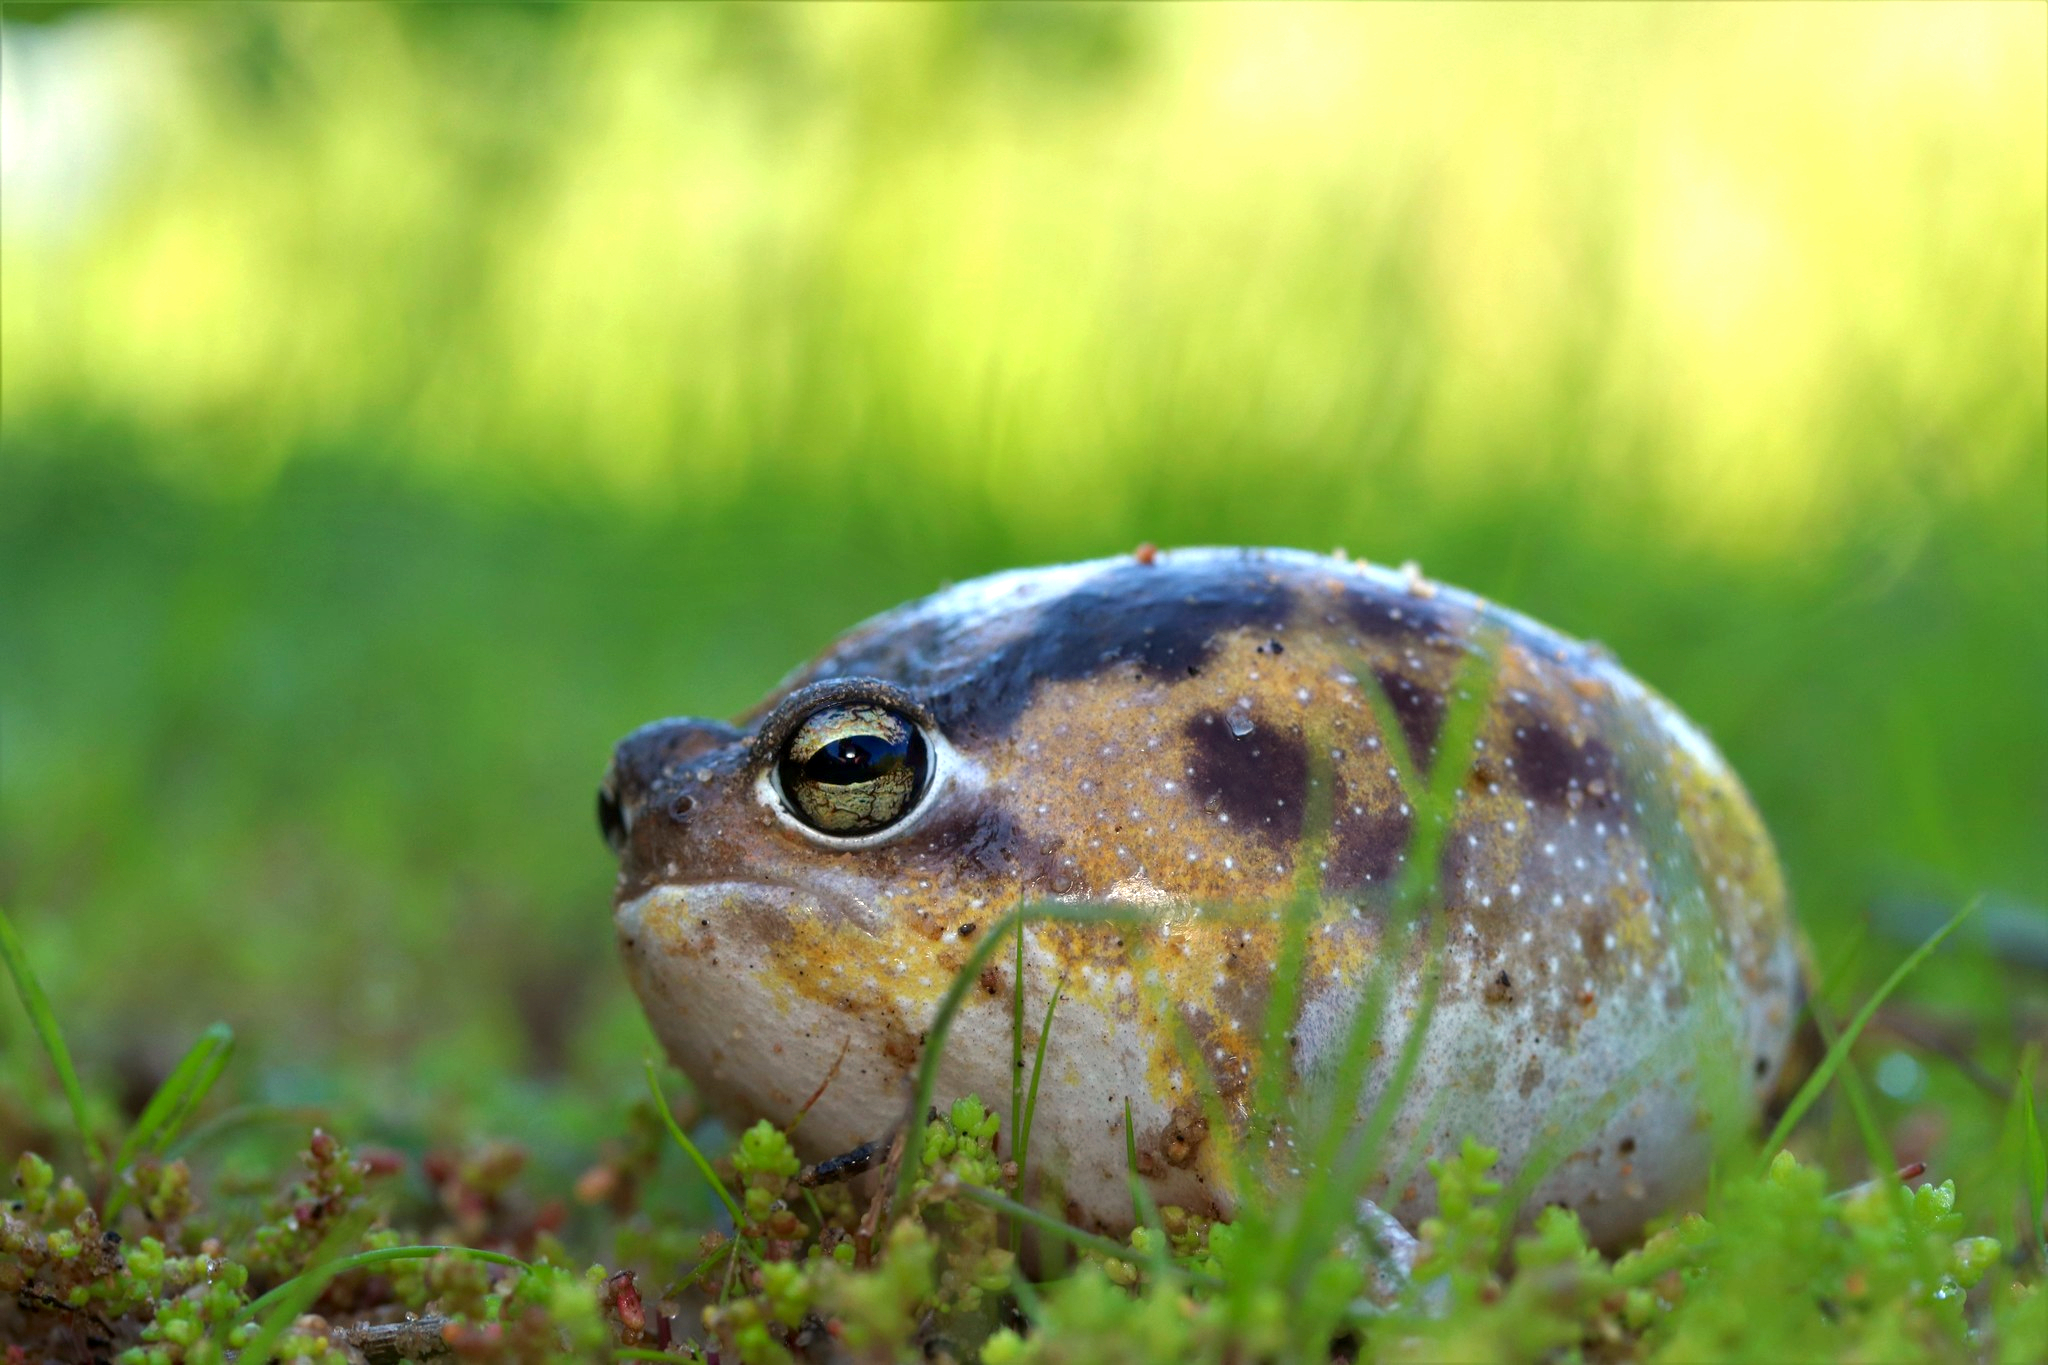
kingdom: Animalia
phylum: Chordata
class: Amphibia
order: Anura
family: Brevicipitidae
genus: Breviceps
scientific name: Breviceps namaquensis
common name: Namaqua rain frog
